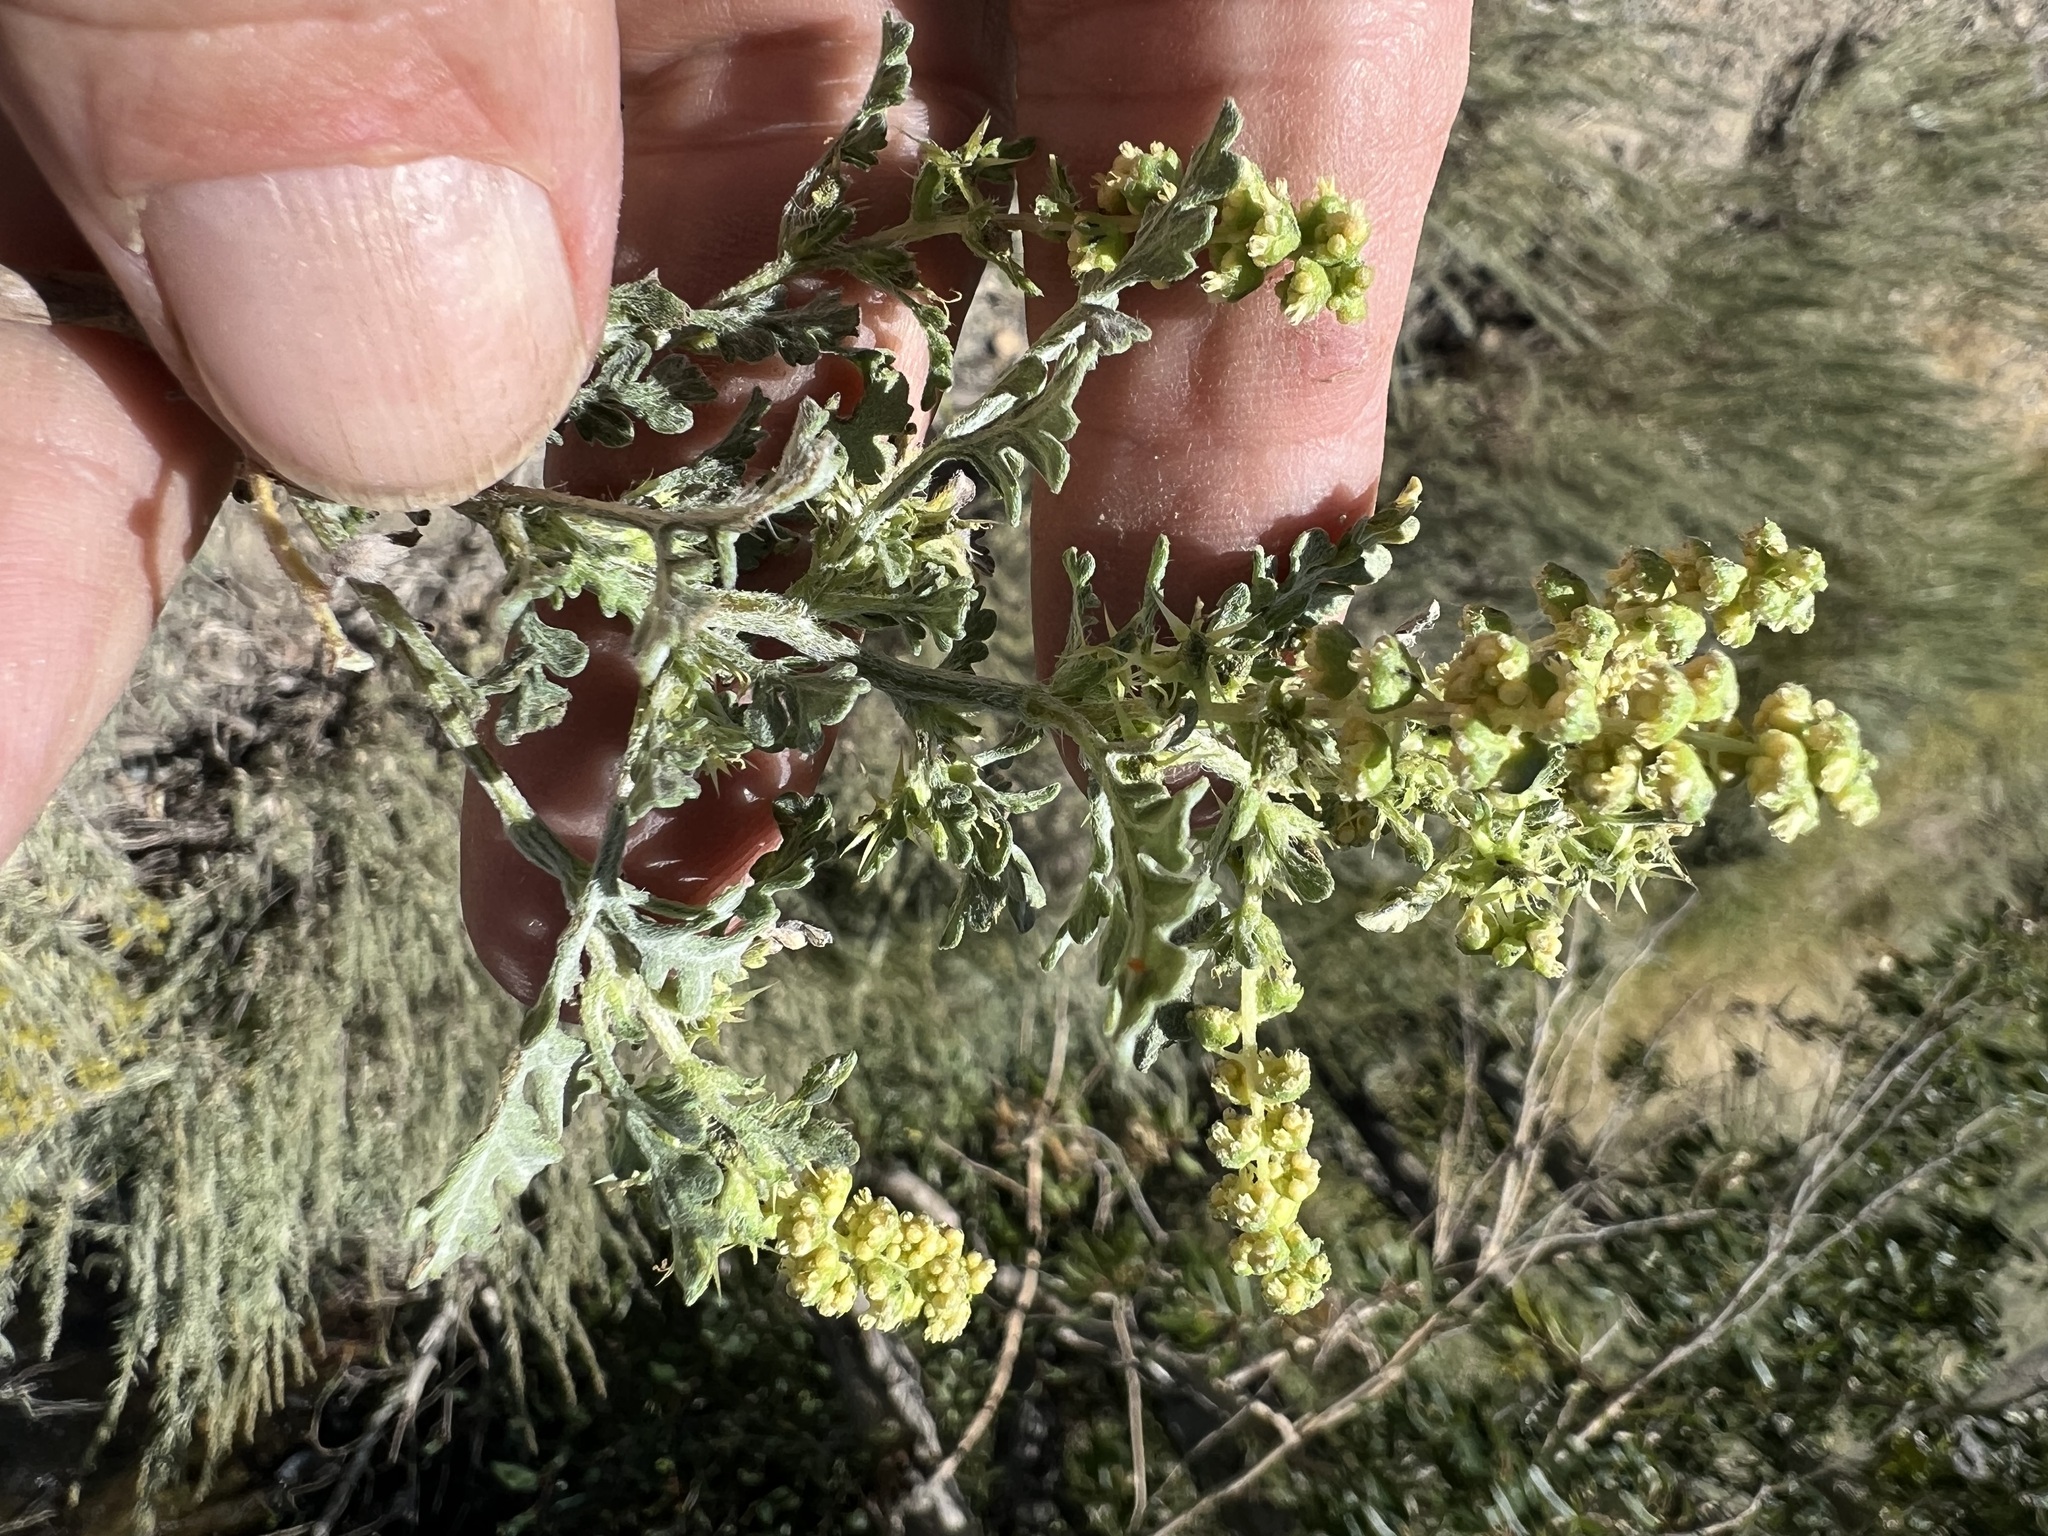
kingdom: Plantae
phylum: Tracheophyta
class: Magnoliopsida
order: Asterales
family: Asteraceae
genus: Ambrosia
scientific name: Ambrosia acanthicarpa
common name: Hooker's bur ragweed
